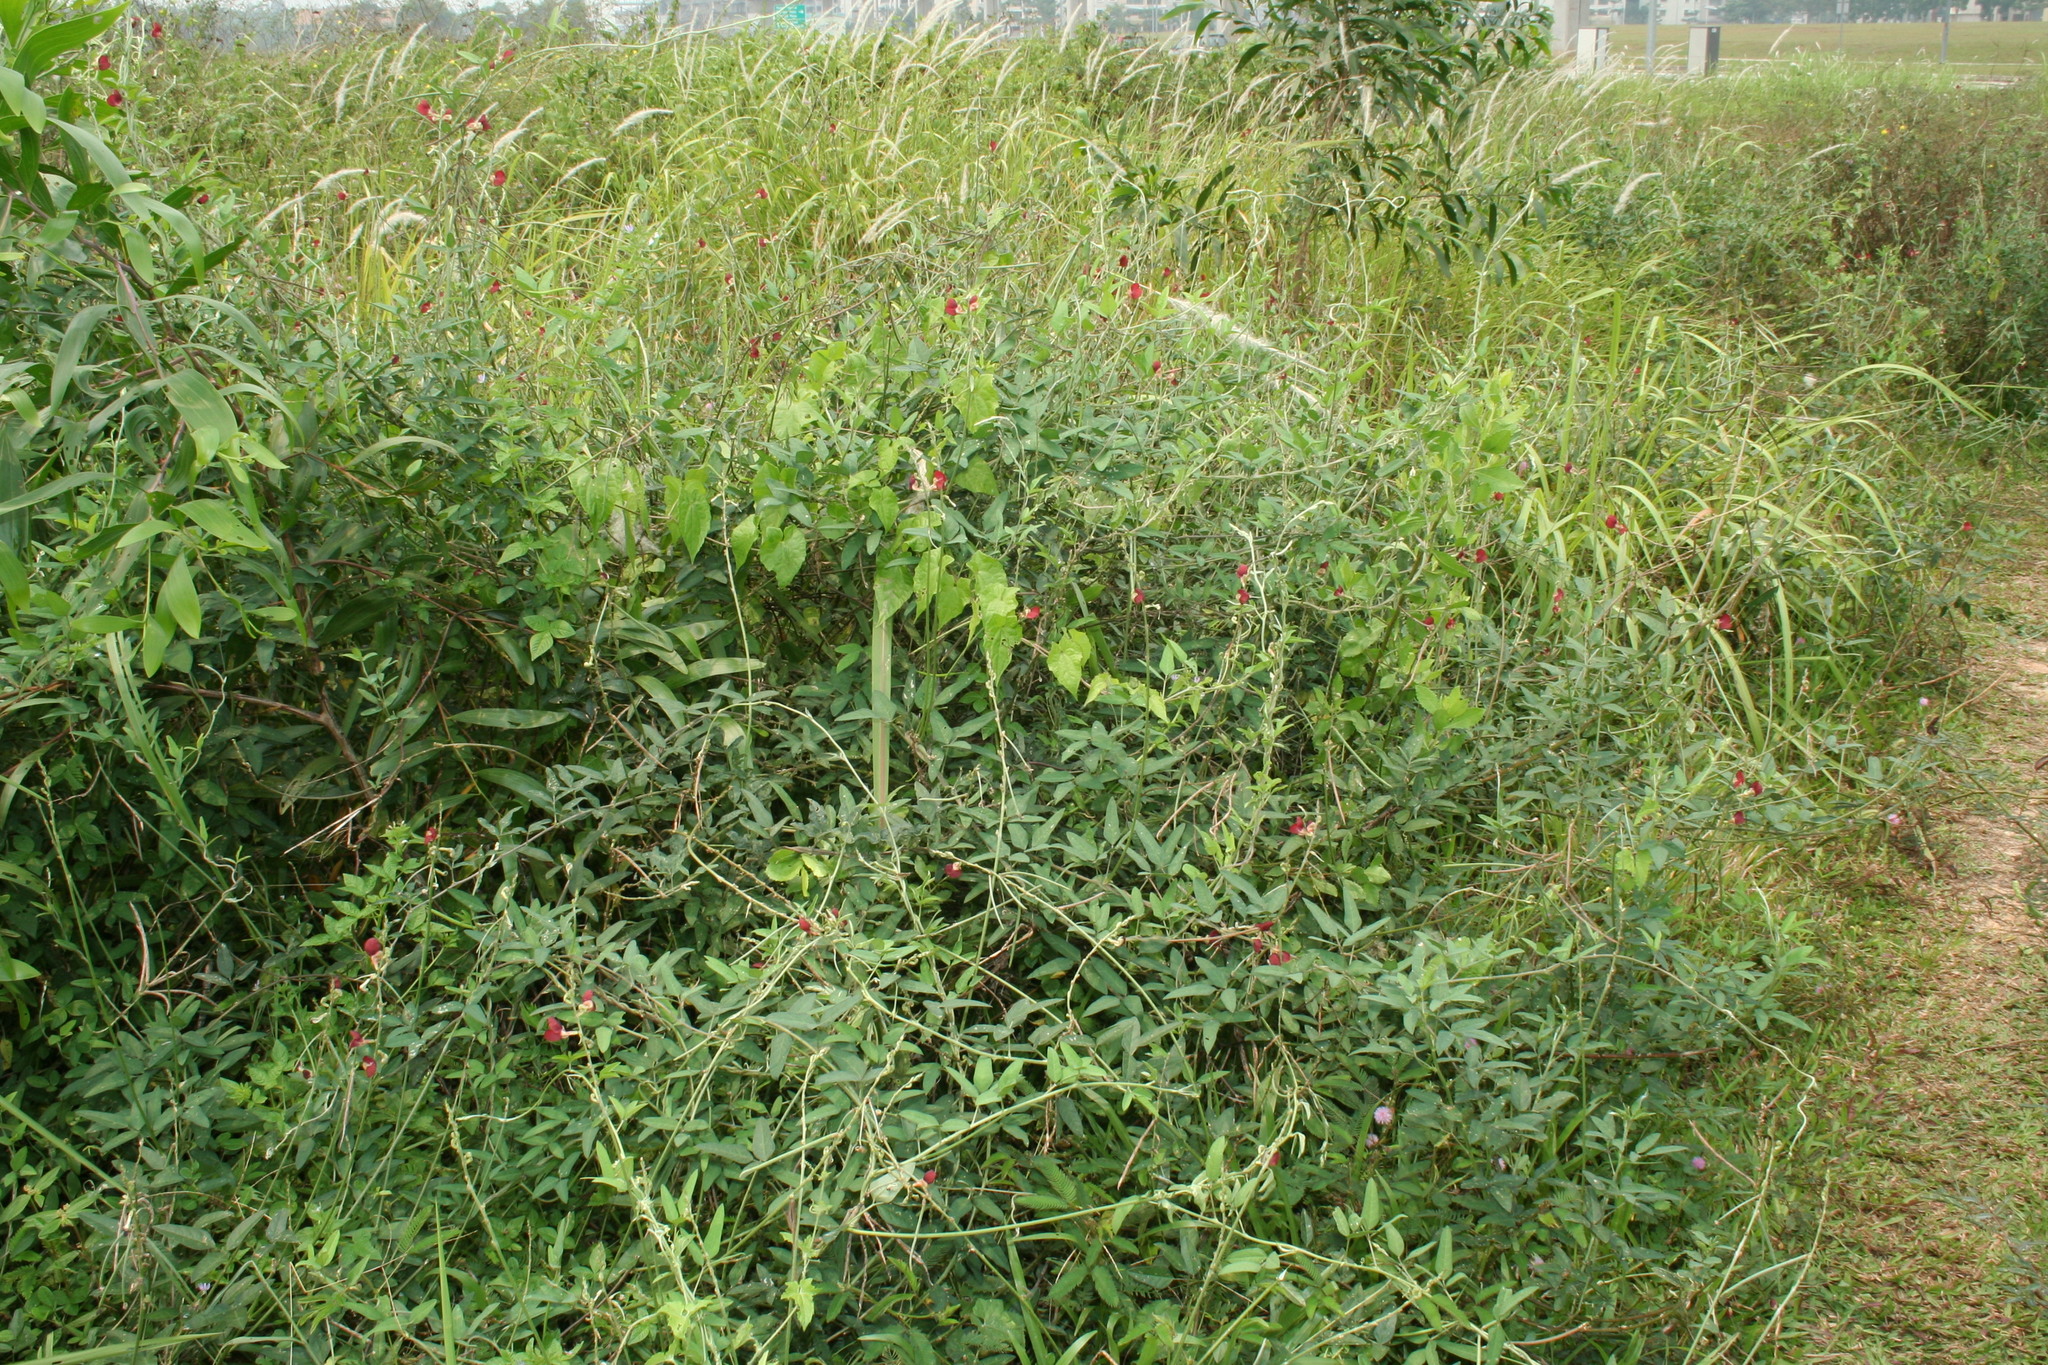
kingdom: Plantae
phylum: Tracheophyta
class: Magnoliopsida
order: Fabales
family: Fabaceae
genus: Macroptilium
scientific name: Macroptilium lathyroides
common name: Wild bushbean
